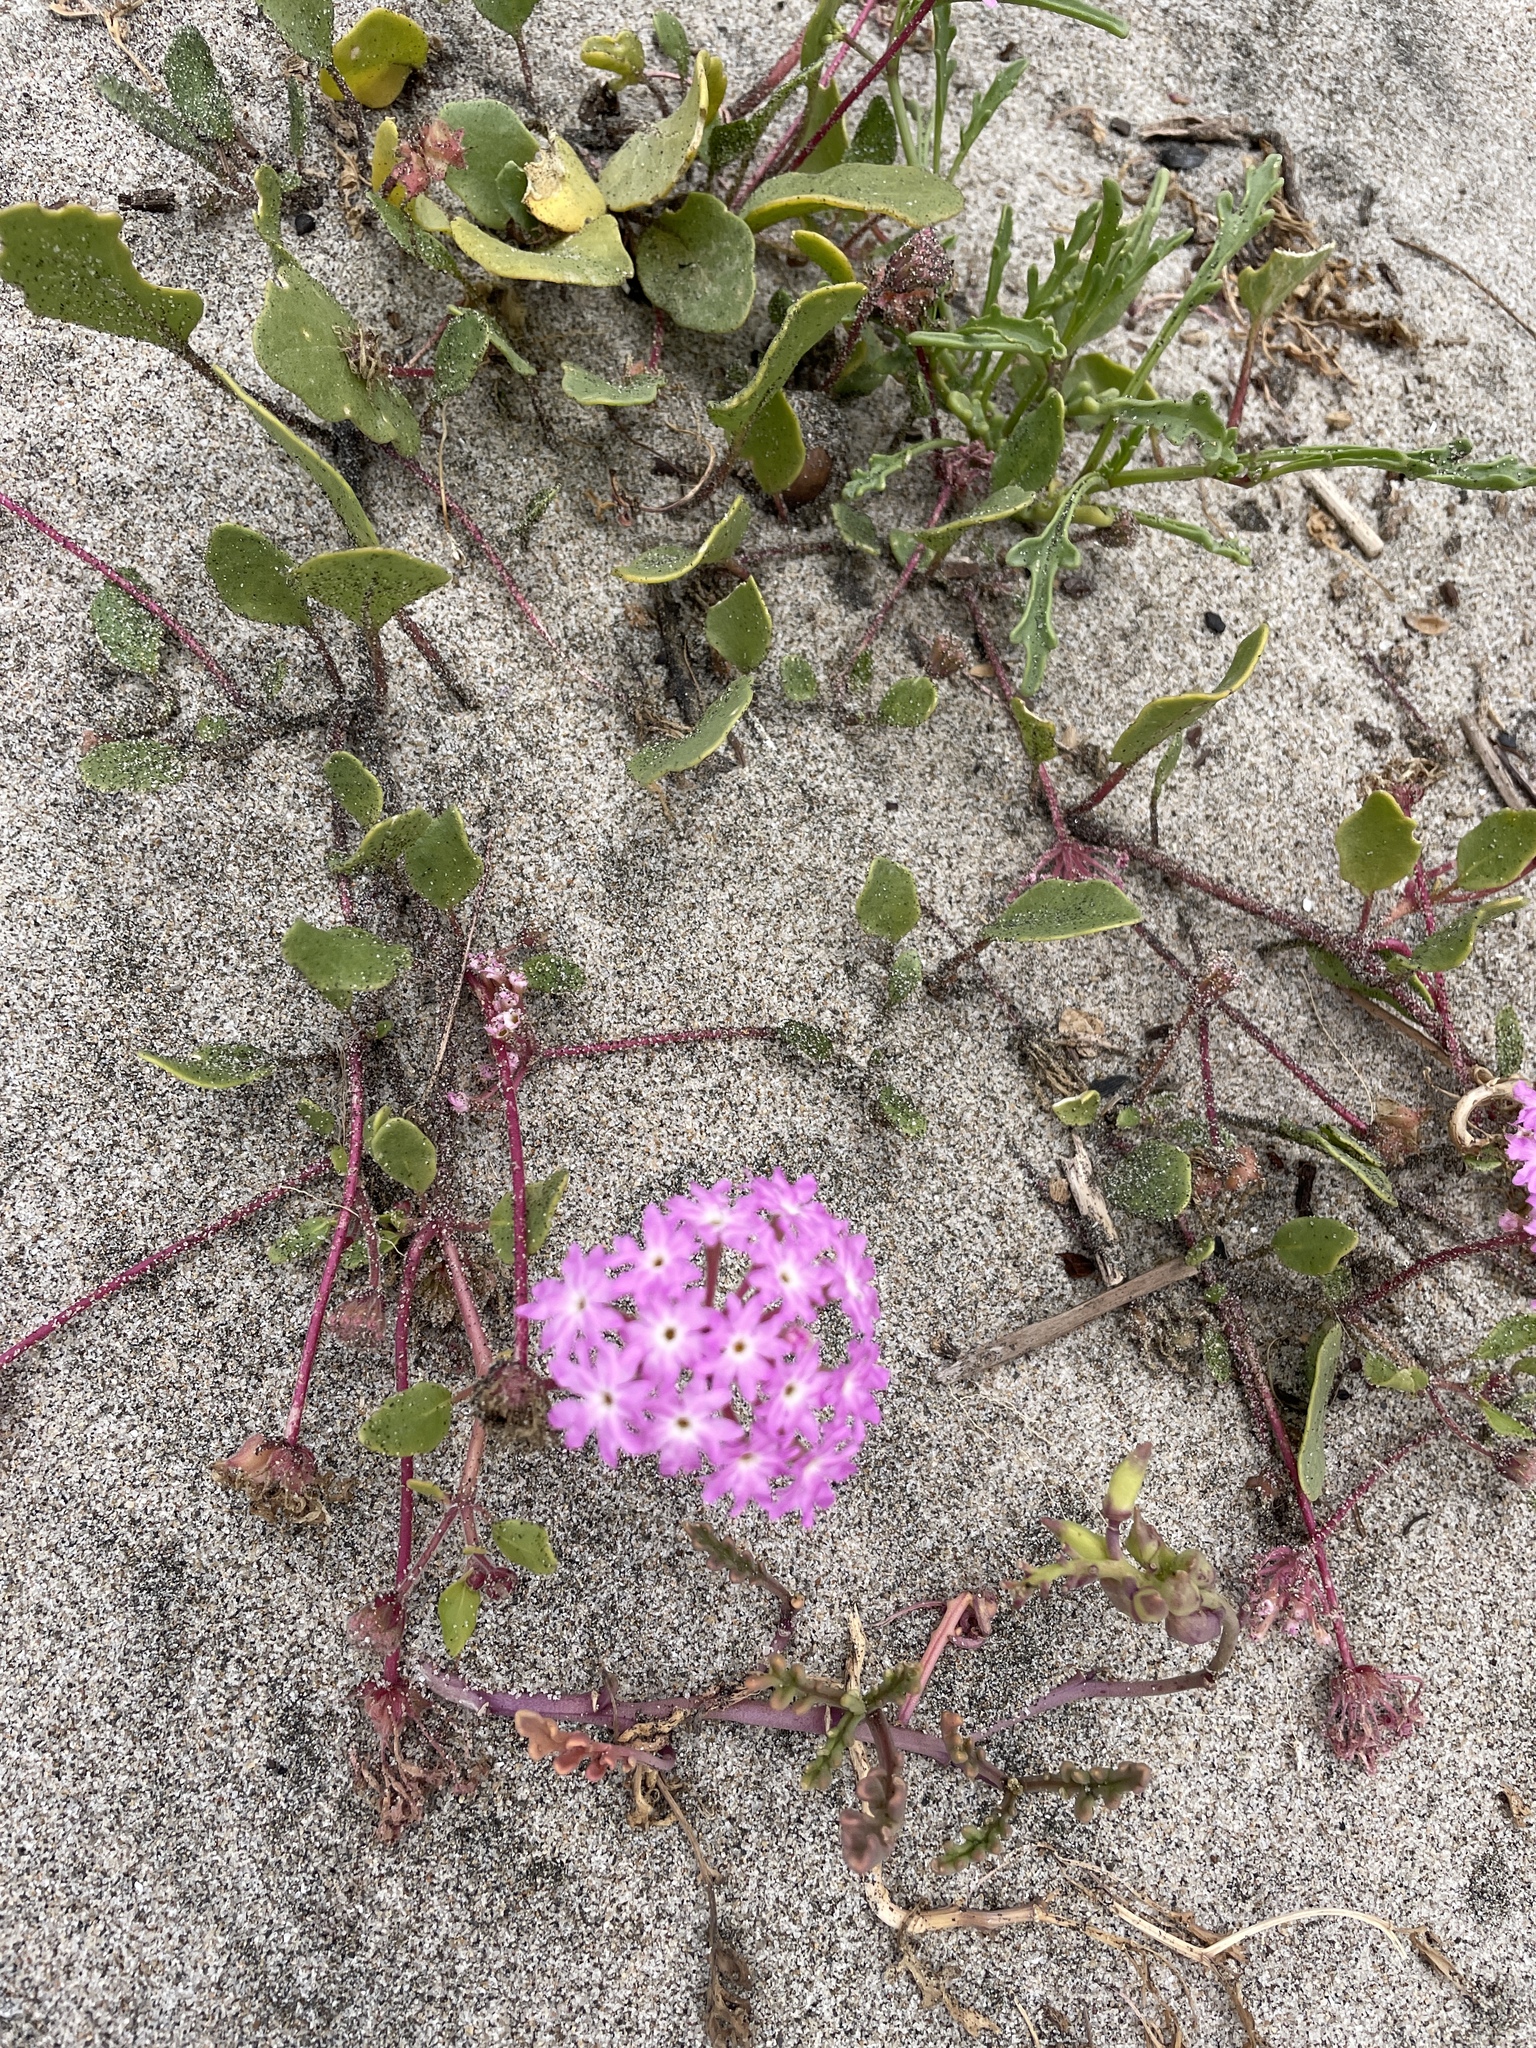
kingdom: Plantae
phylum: Tracheophyta
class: Magnoliopsida
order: Caryophyllales
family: Nyctaginaceae
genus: Abronia
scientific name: Abronia umbellata
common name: Sand-verbena
